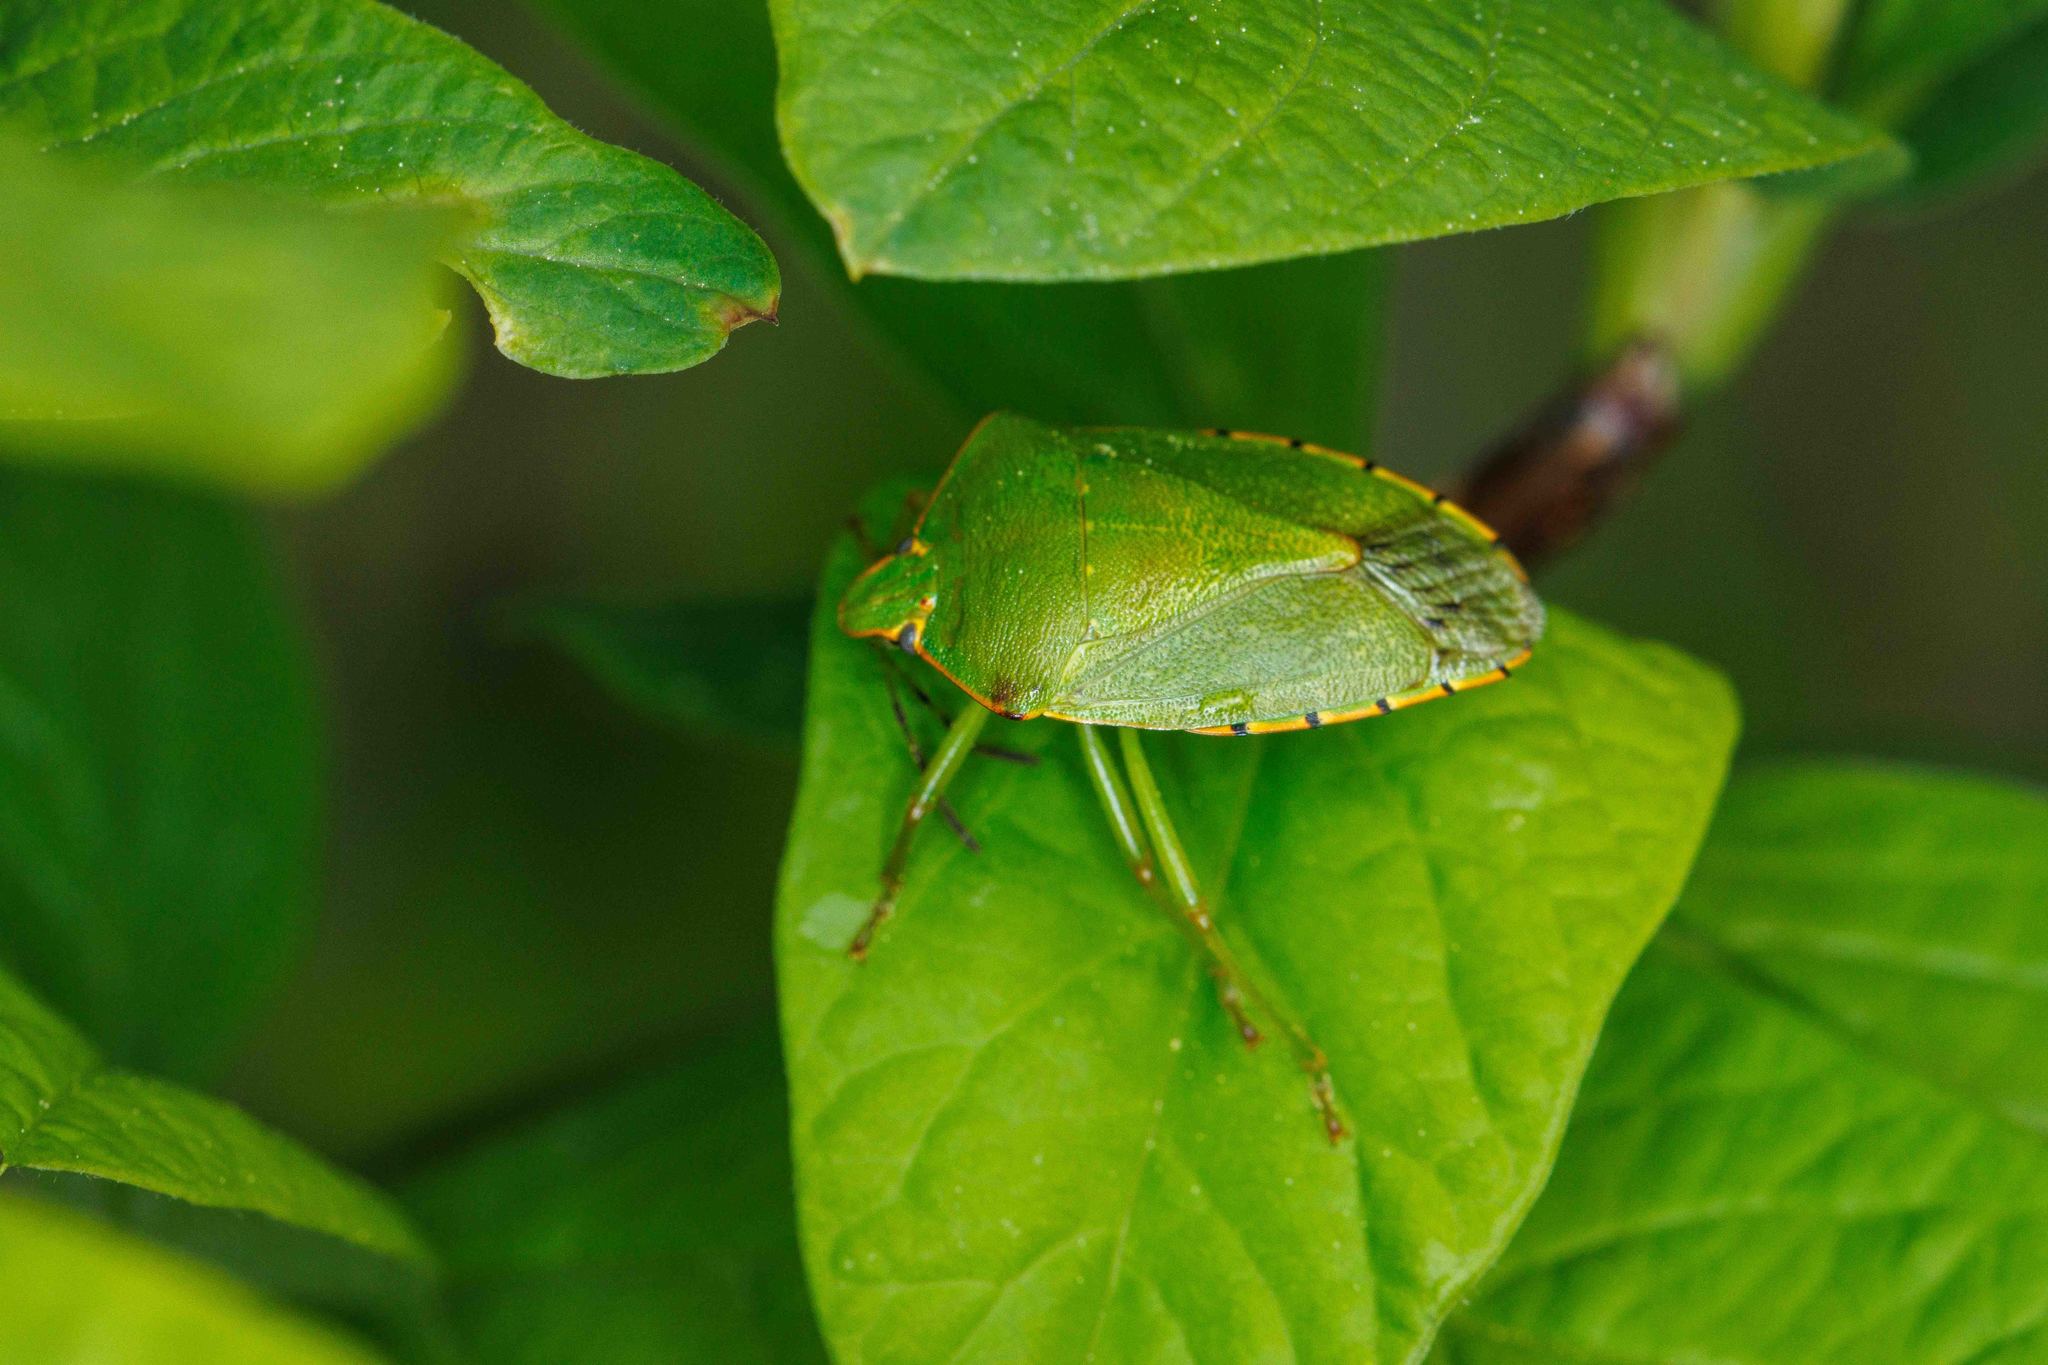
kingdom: Animalia
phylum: Arthropoda
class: Insecta
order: Hemiptera
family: Pentatomidae
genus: Chinavia
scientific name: Chinavia hilaris
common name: Green stink bug
